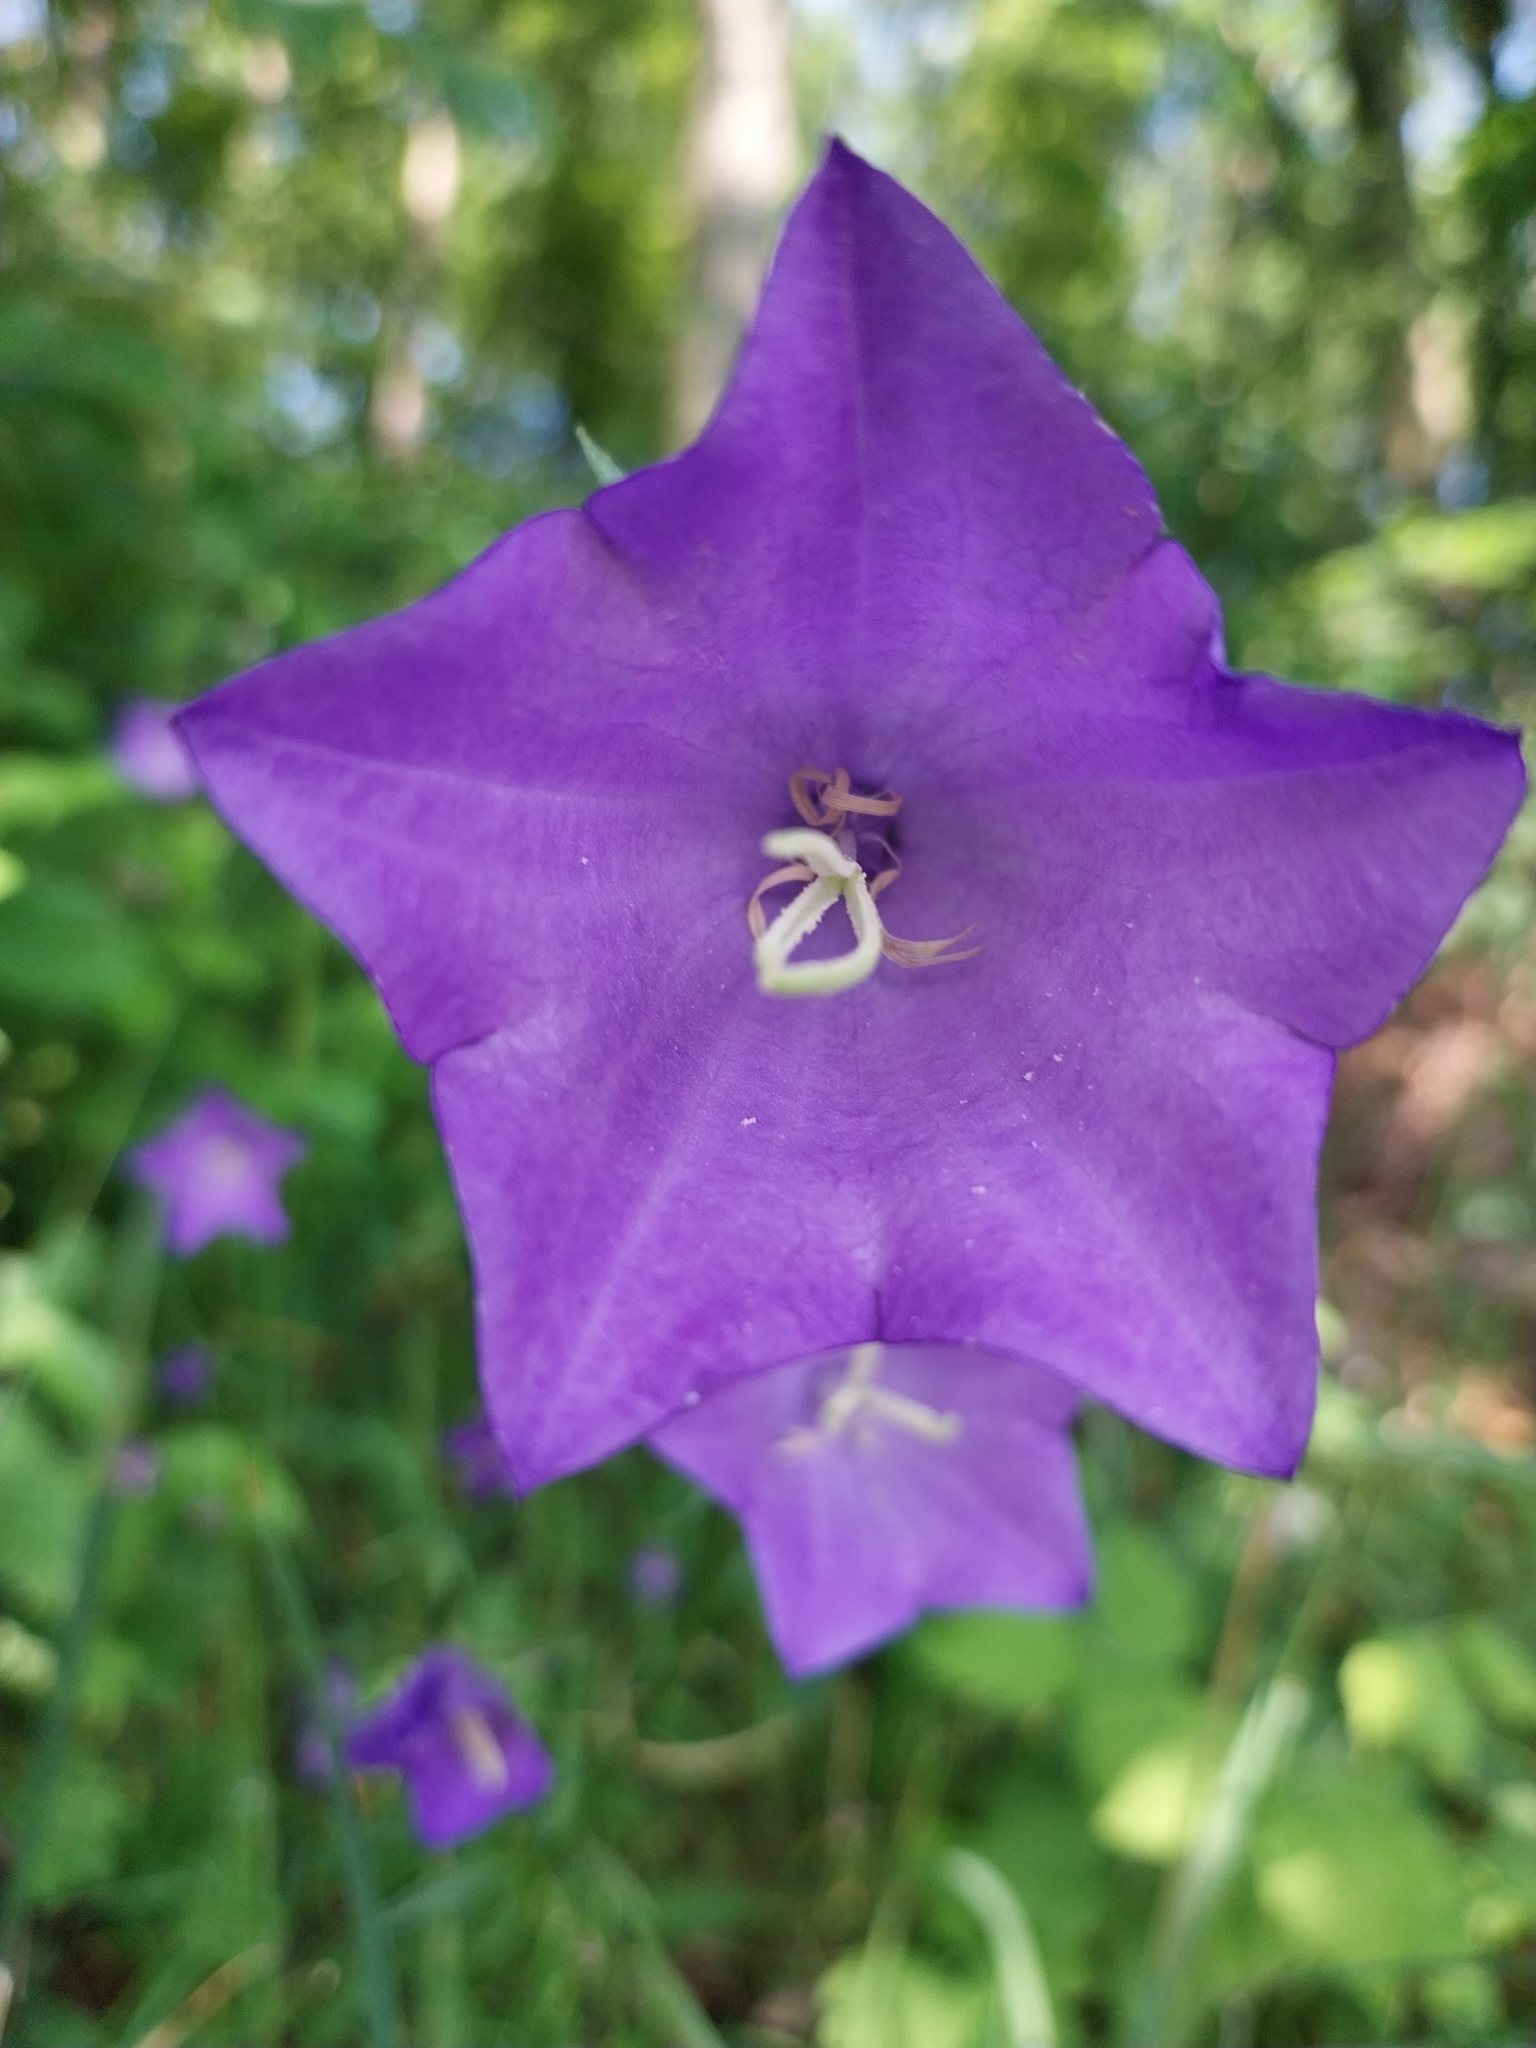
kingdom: Plantae
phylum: Tracheophyta
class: Magnoliopsida
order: Asterales
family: Campanulaceae
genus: Campanula
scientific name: Campanula persicifolia
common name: Peach-leaved bellflower
